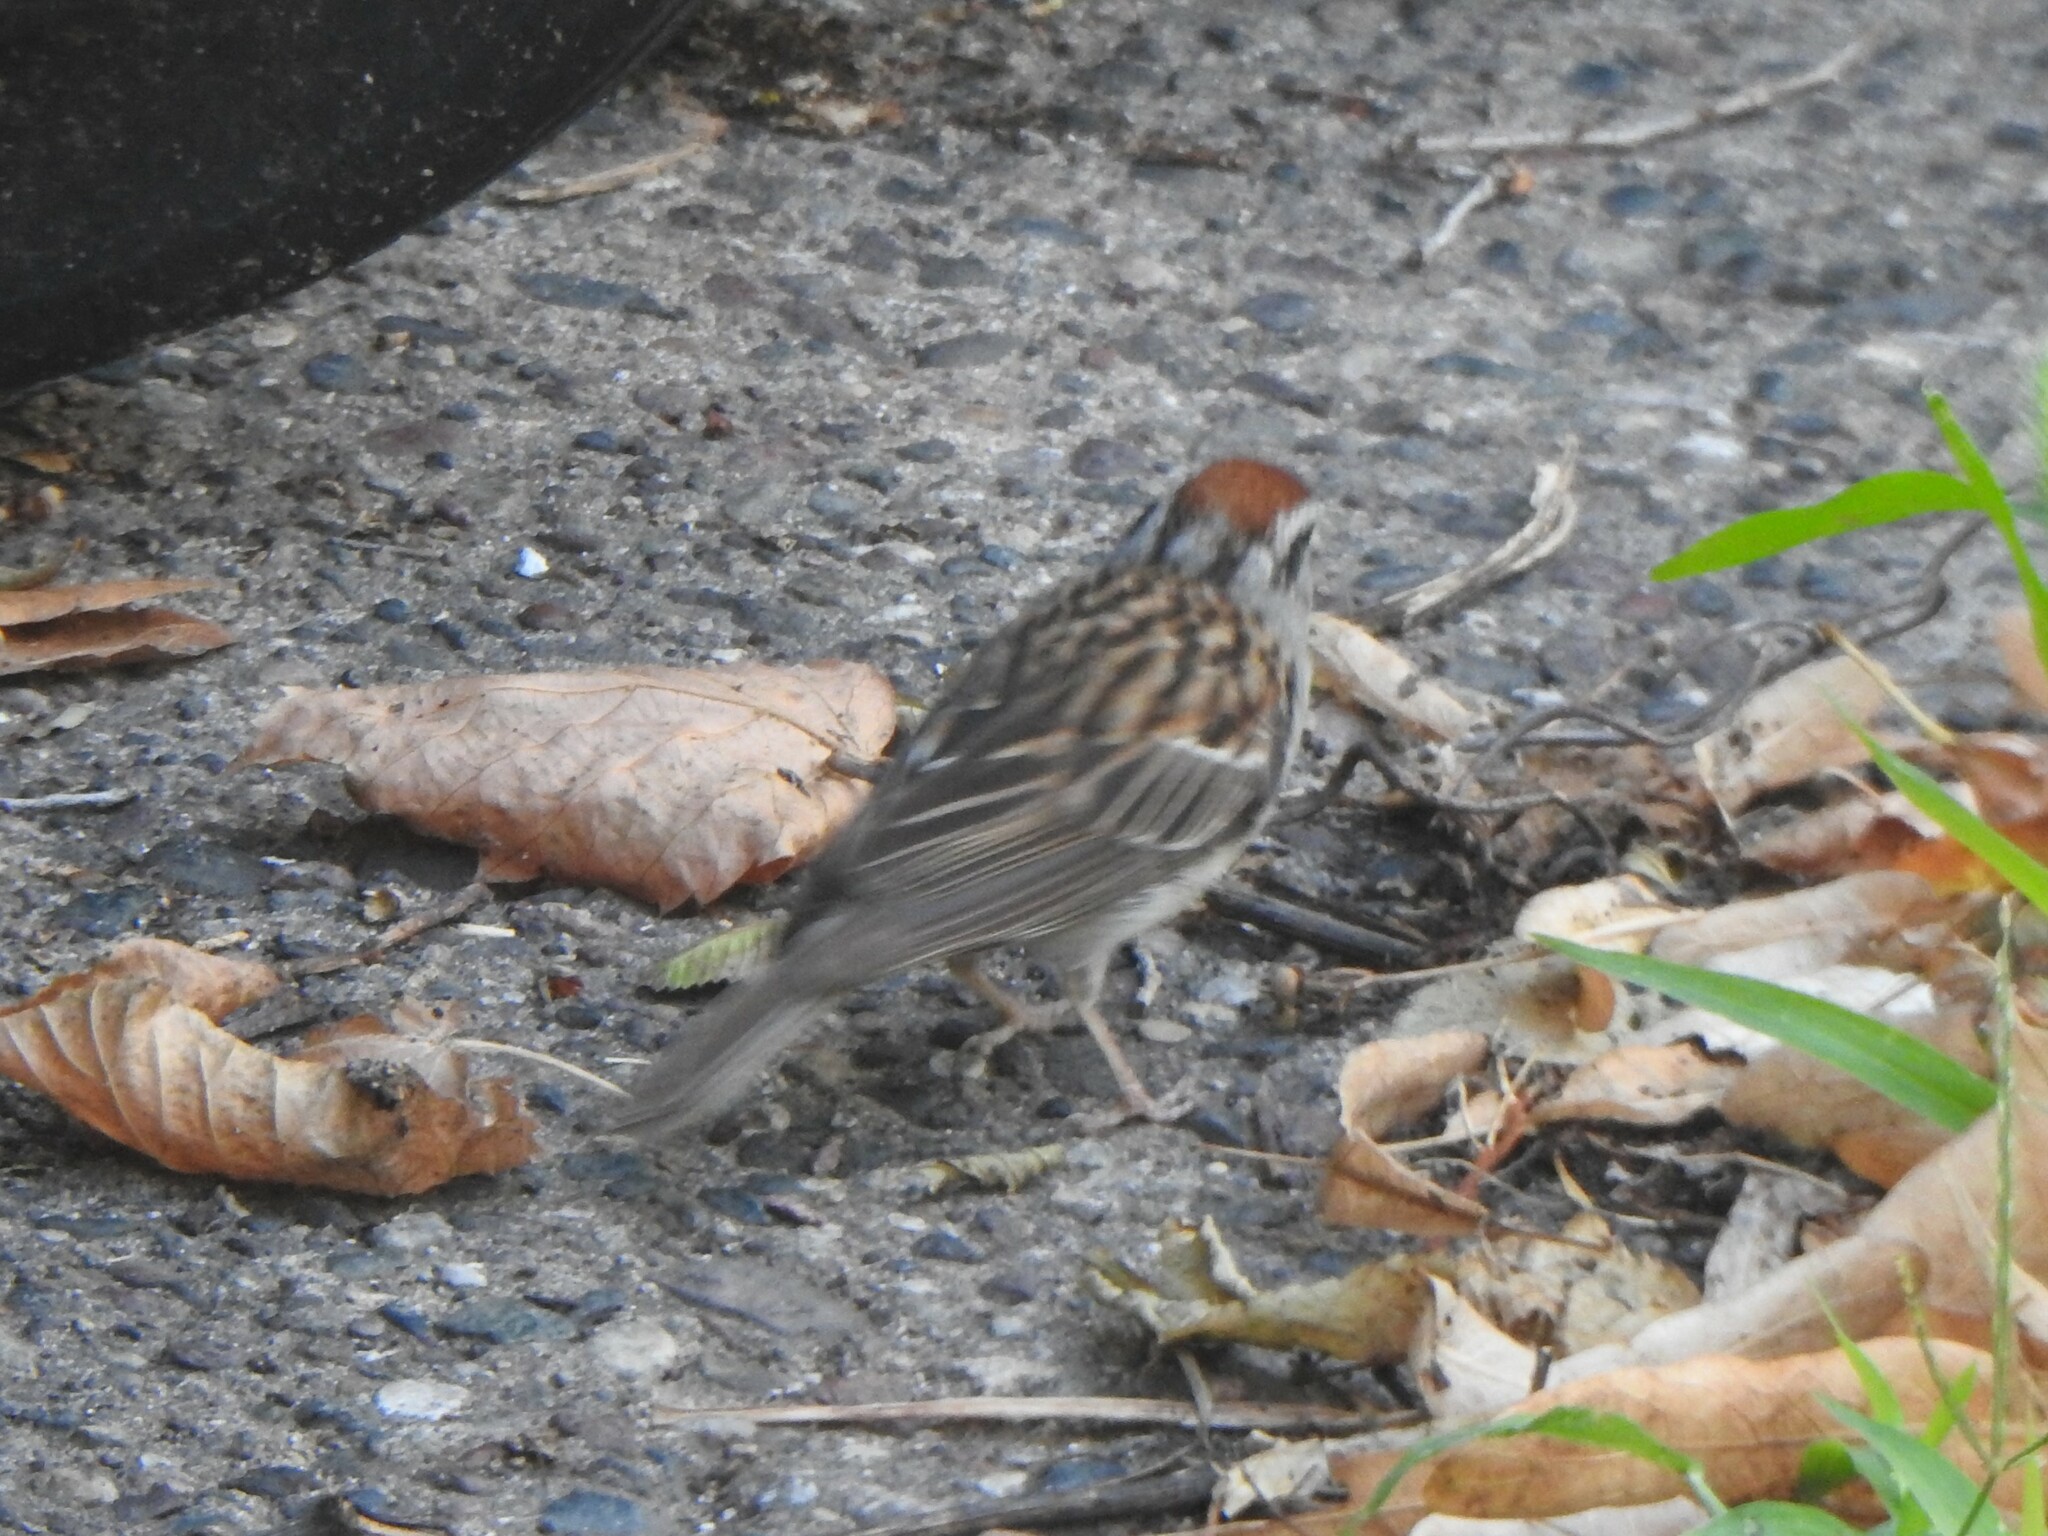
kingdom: Animalia
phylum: Chordata
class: Aves
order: Passeriformes
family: Passerellidae
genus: Spizella
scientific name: Spizella passerina
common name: Chipping sparrow
